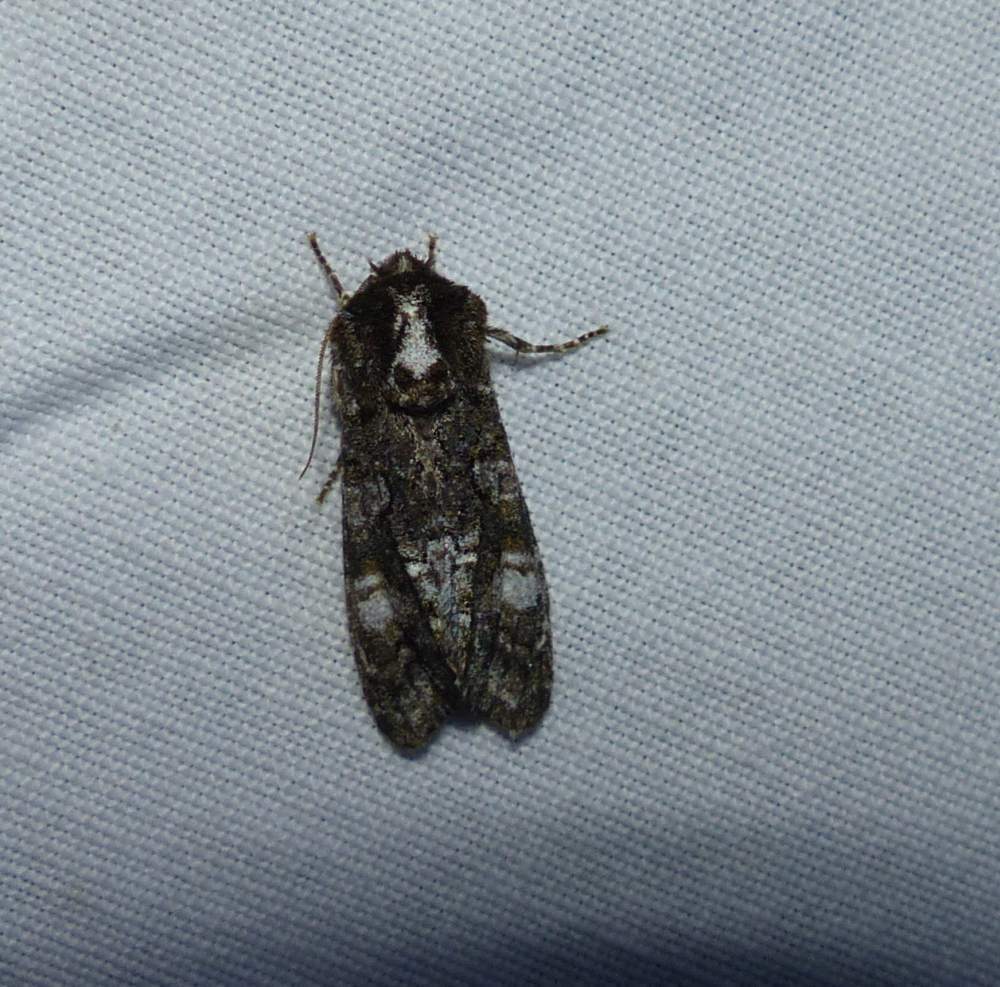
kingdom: Animalia
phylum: Arthropoda
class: Insecta
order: Lepidoptera
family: Noctuidae
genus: Psaphida
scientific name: Psaphida grotei
